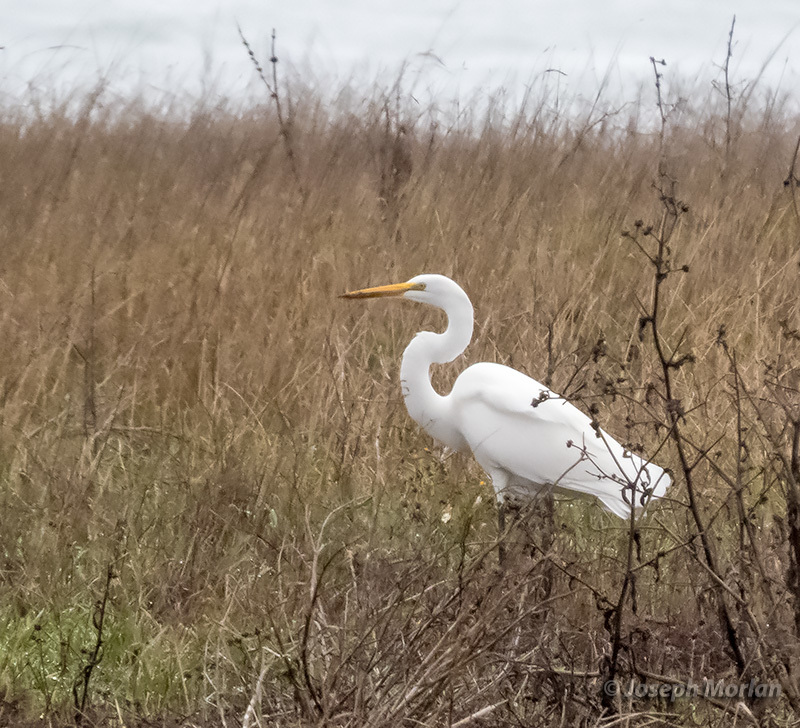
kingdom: Animalia
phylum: Chordata
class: Aves
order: Pelecaniformes
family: Ardeidae
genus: Ardea
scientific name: Ardea alba
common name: Great egret
